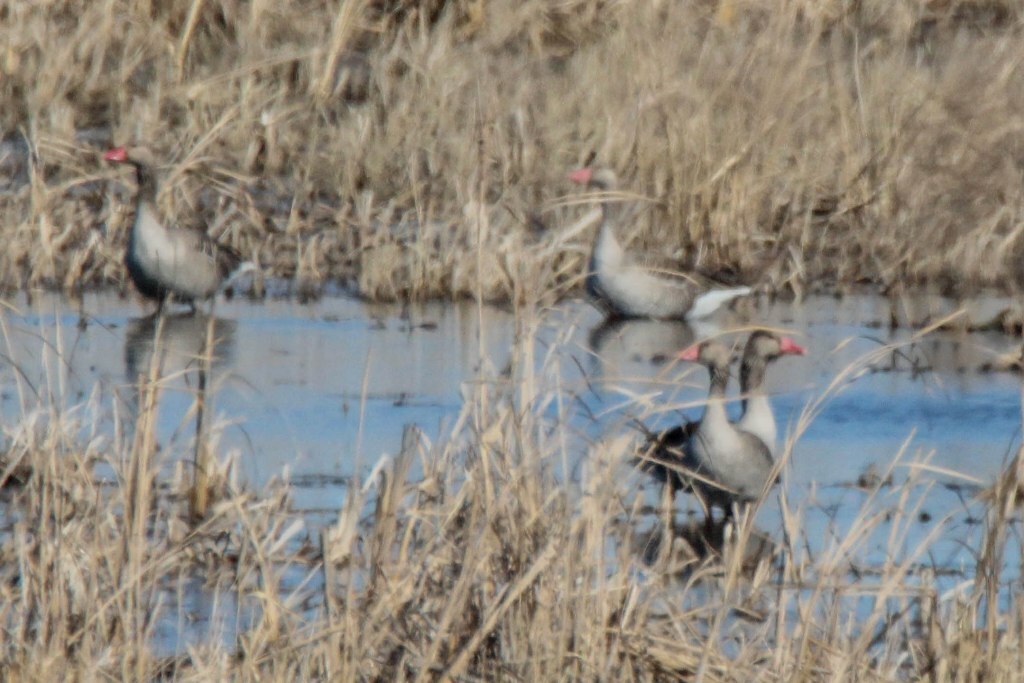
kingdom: Animalia
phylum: Chordata
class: Aves
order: Anseriformes
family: Anatidae
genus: Anser
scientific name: Anser anser
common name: Greylag goose
